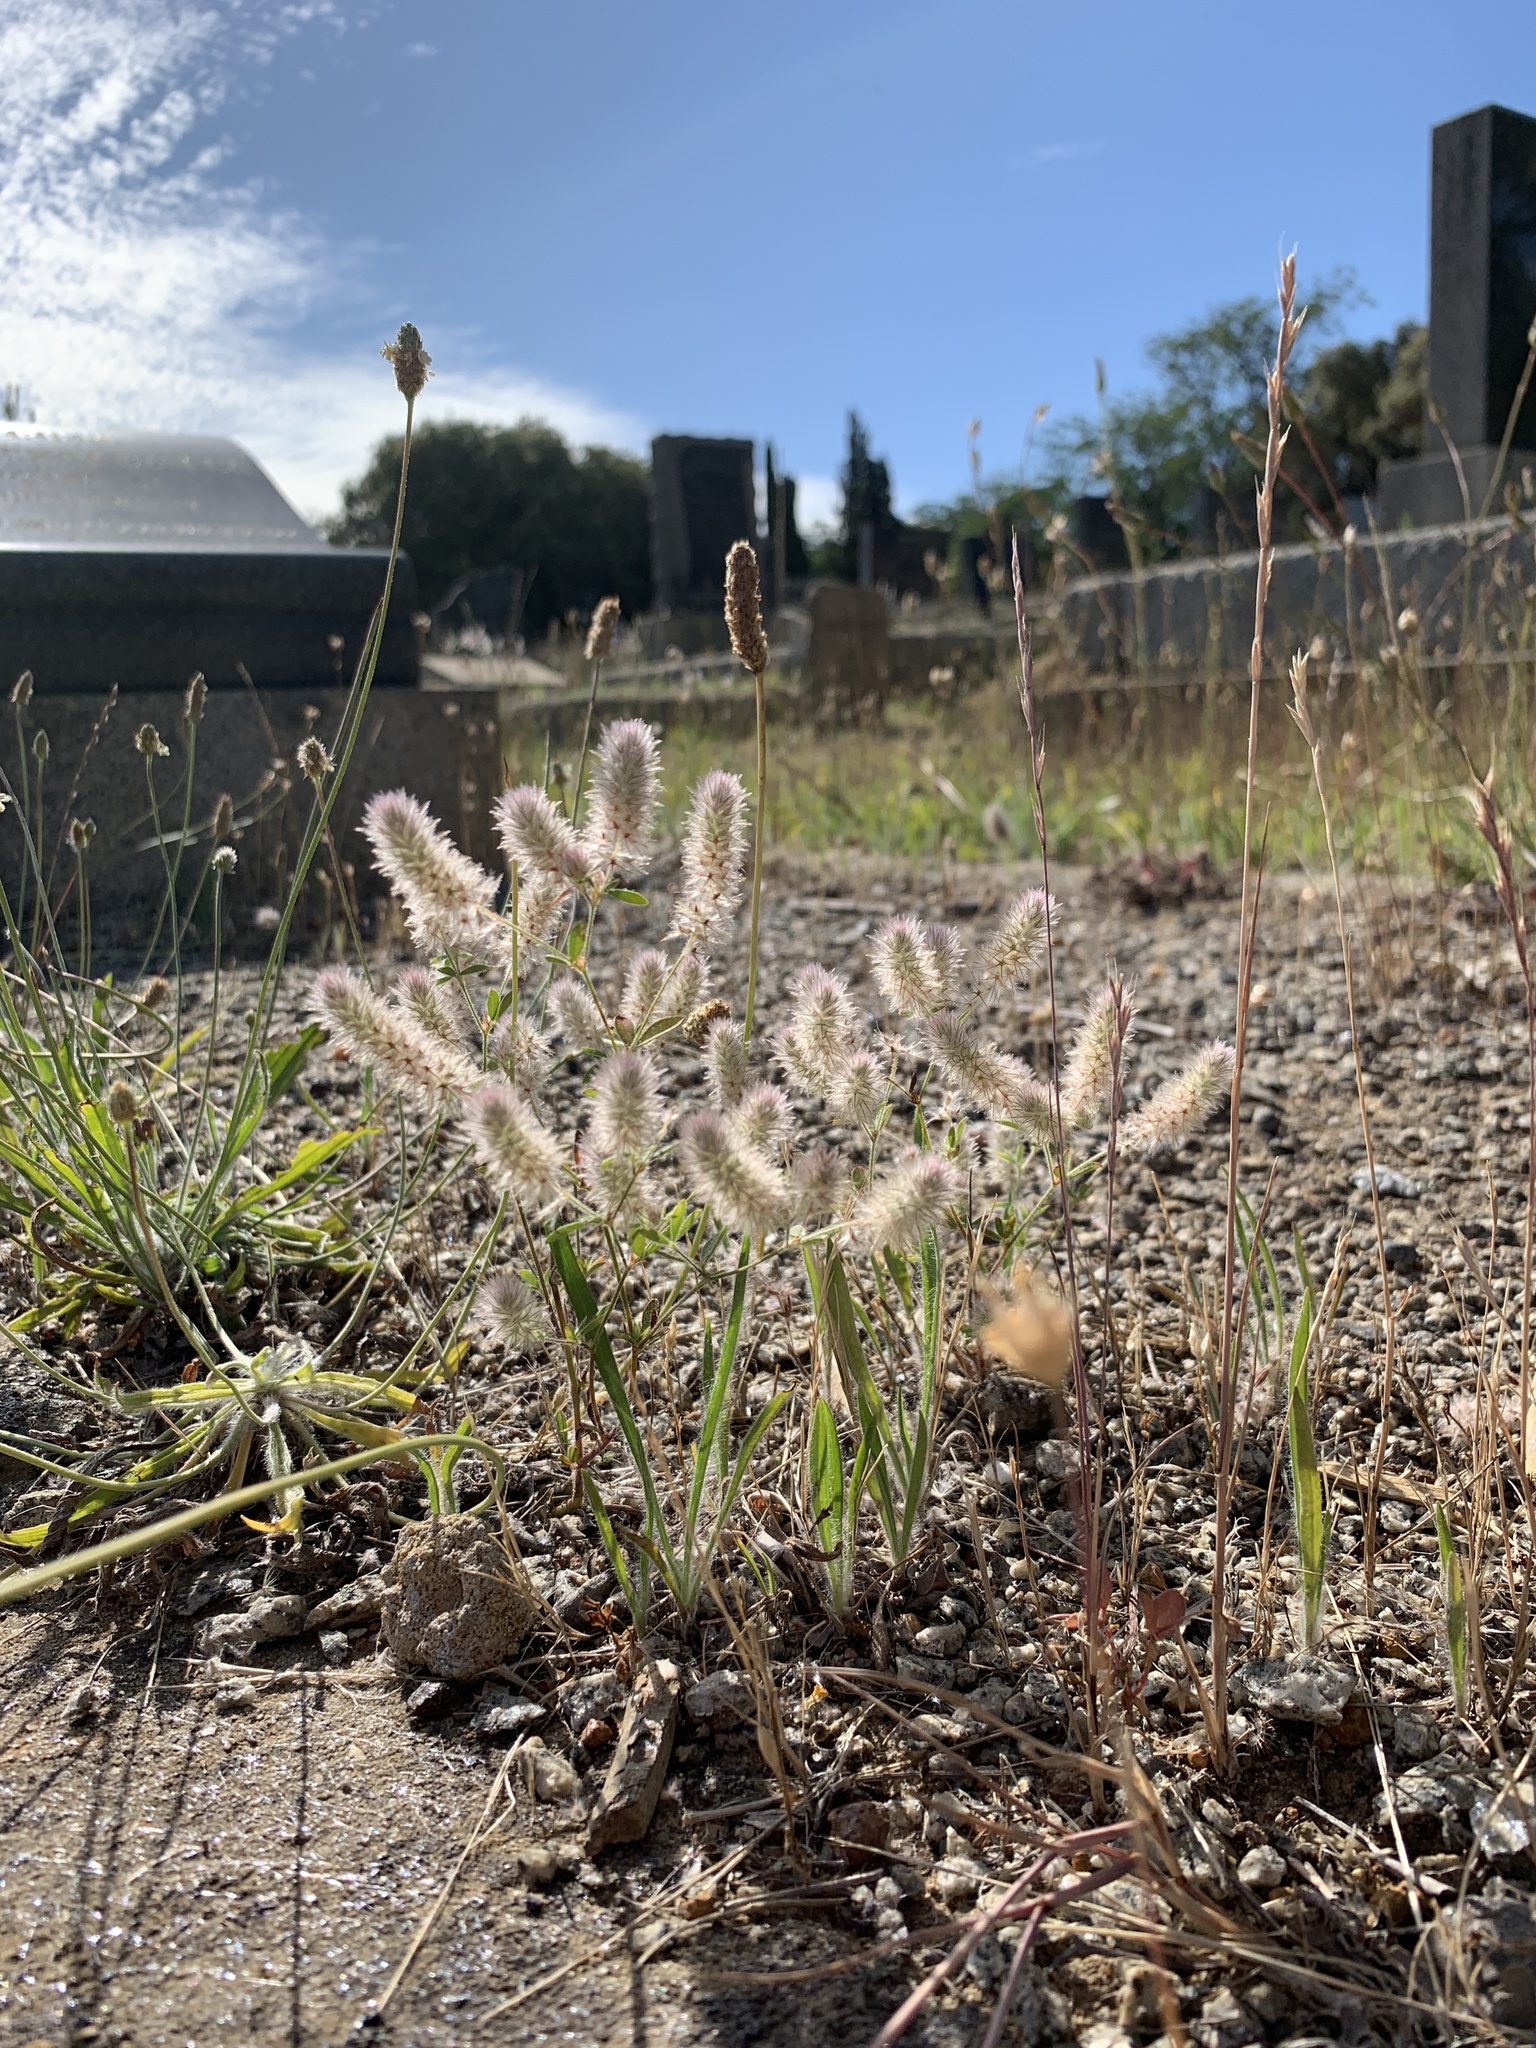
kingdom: Plantae
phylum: Tracheophyta
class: Magnoliopsida
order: Fabales
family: Fabaceae
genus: Trifolium
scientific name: Trifolium arvense
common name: Hare's-foot clover
